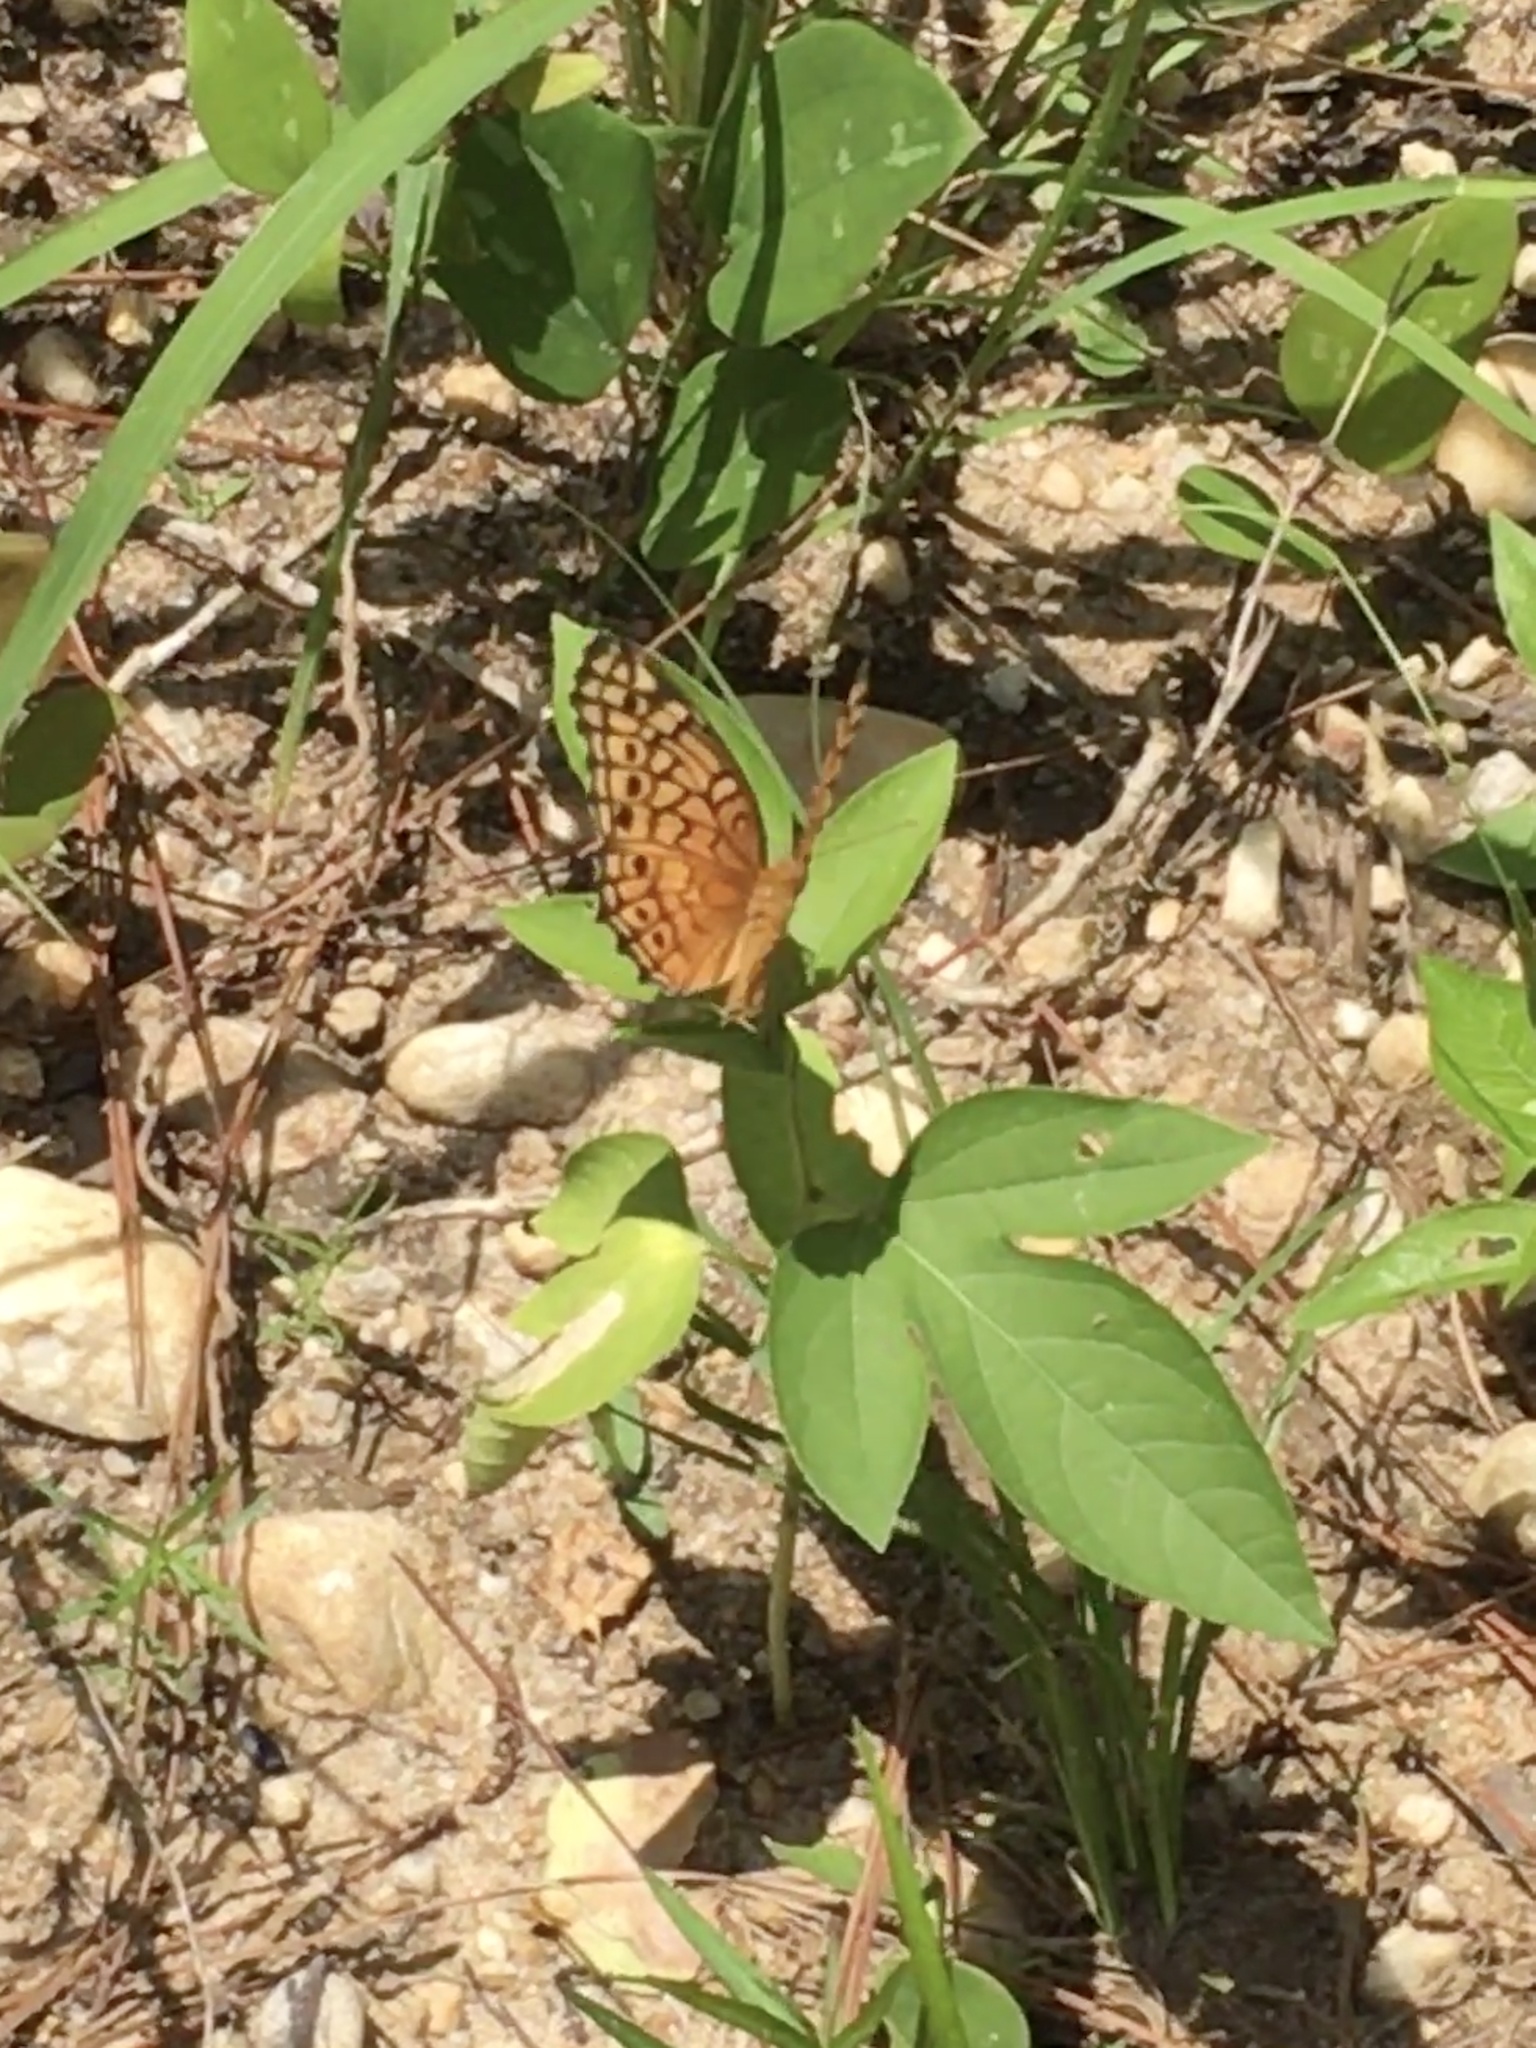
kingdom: Animalia
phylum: Arthropoda
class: Insecta
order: Lepidoptera
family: Nymphalidae
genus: Euptoieta
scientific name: Euptoieta claudia
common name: Variegated fritillary
